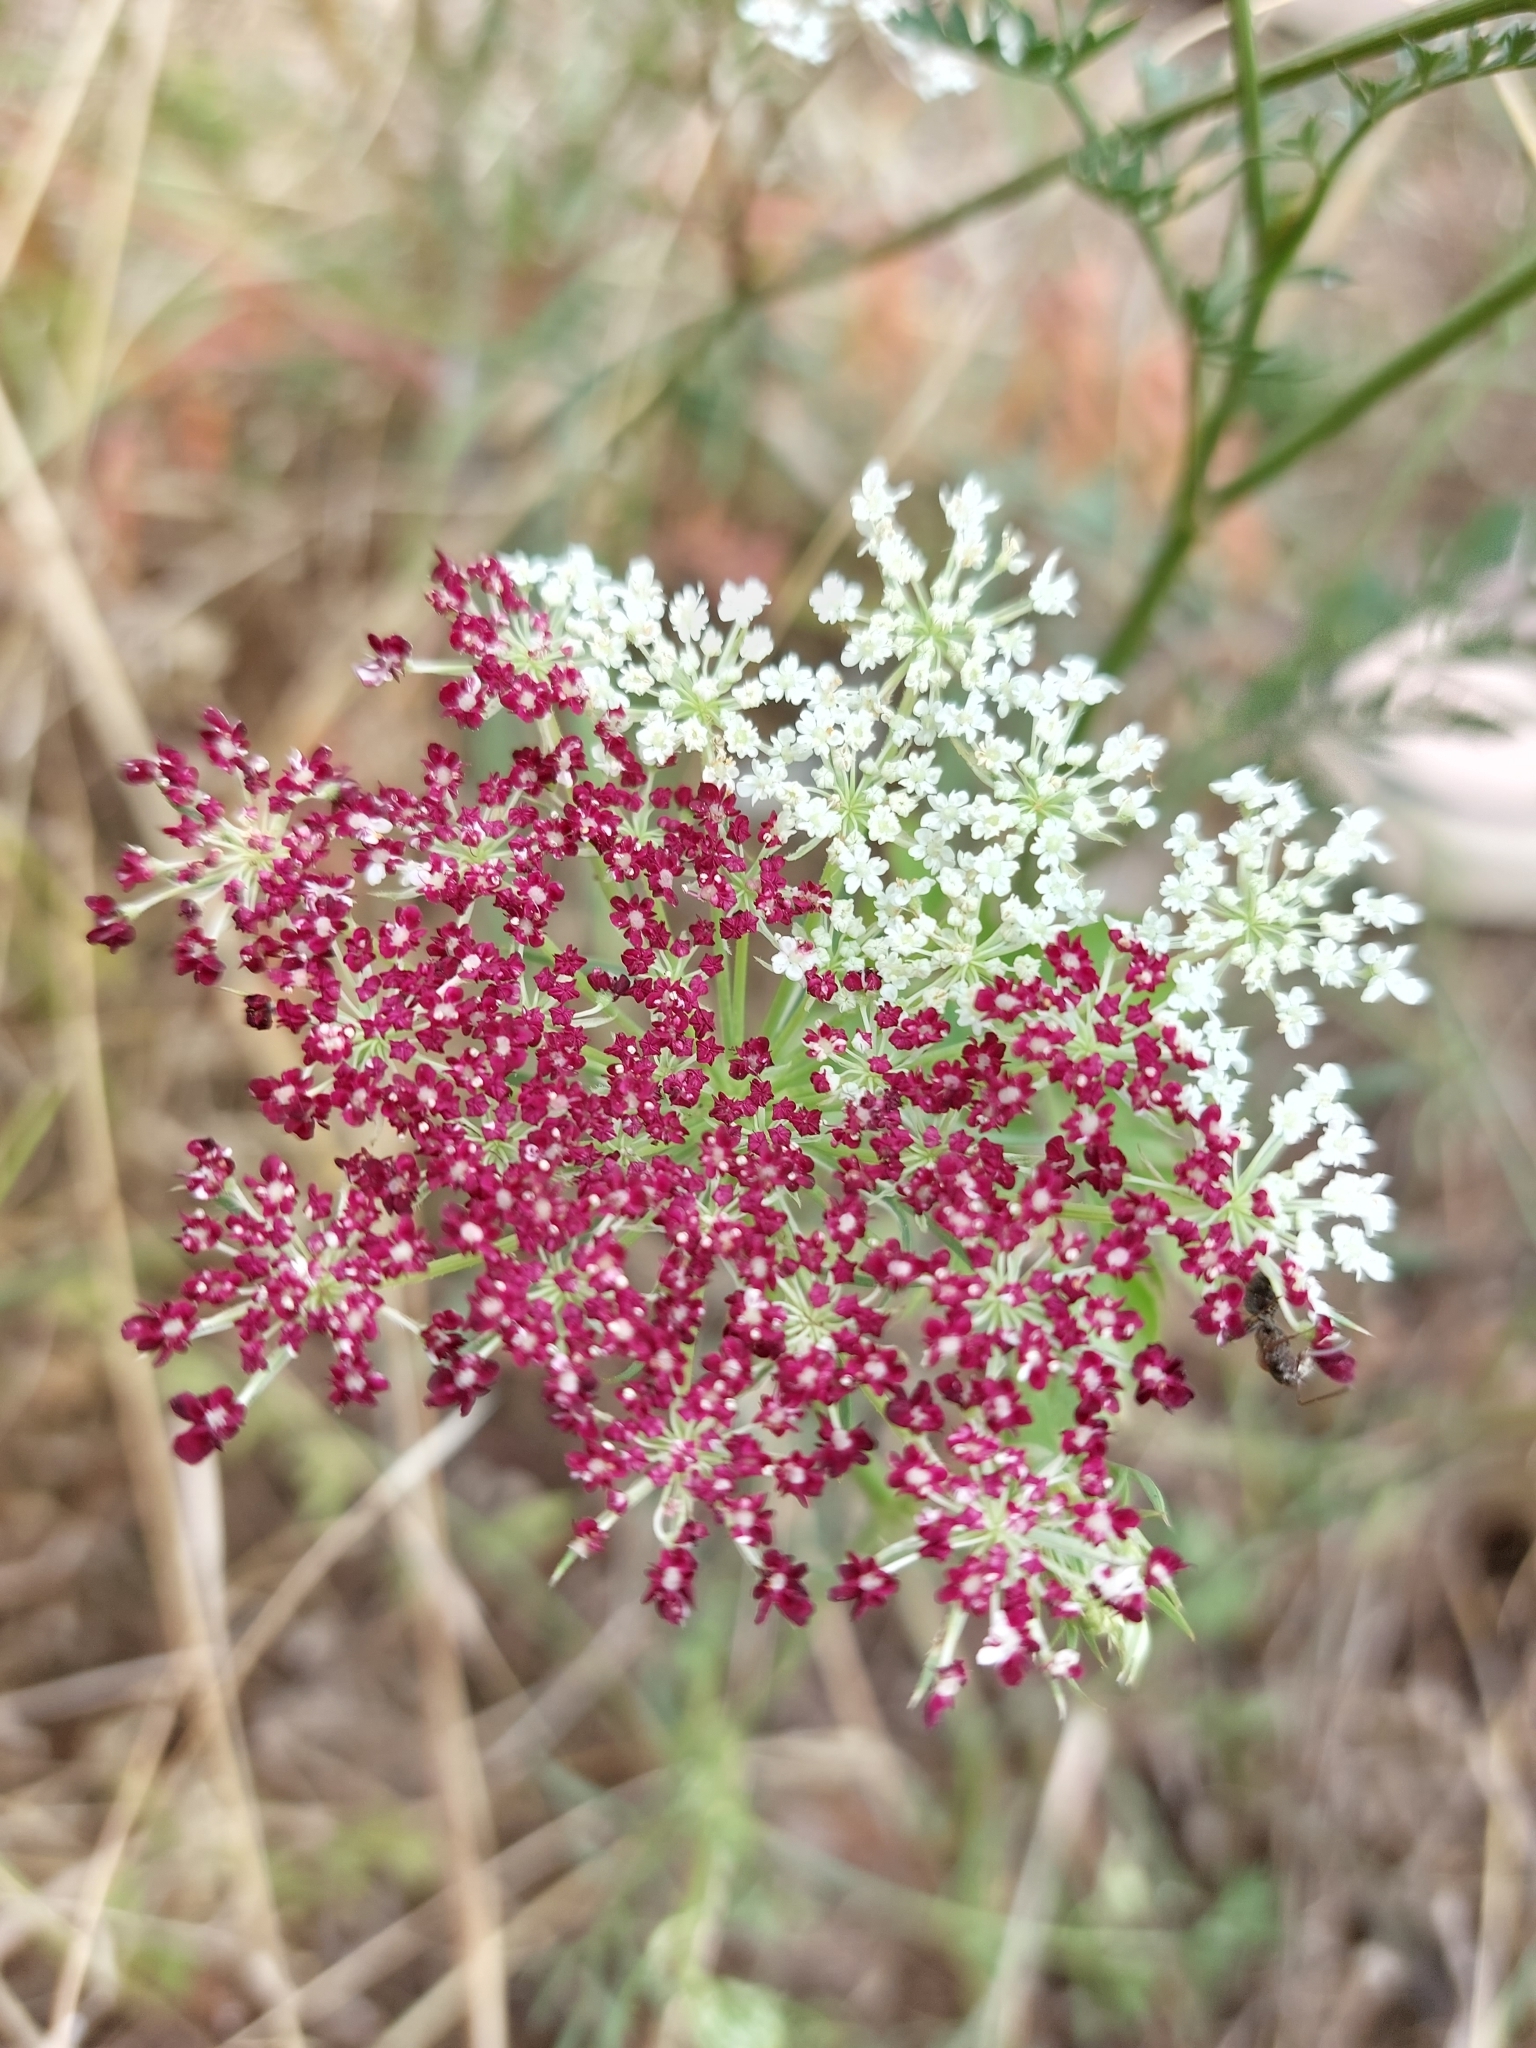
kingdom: Plantae
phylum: Tracheophyta
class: Magnoliopsida
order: Apiales
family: Apiaceae
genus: Daucus
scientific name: Daucus carota
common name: Wild carrot
